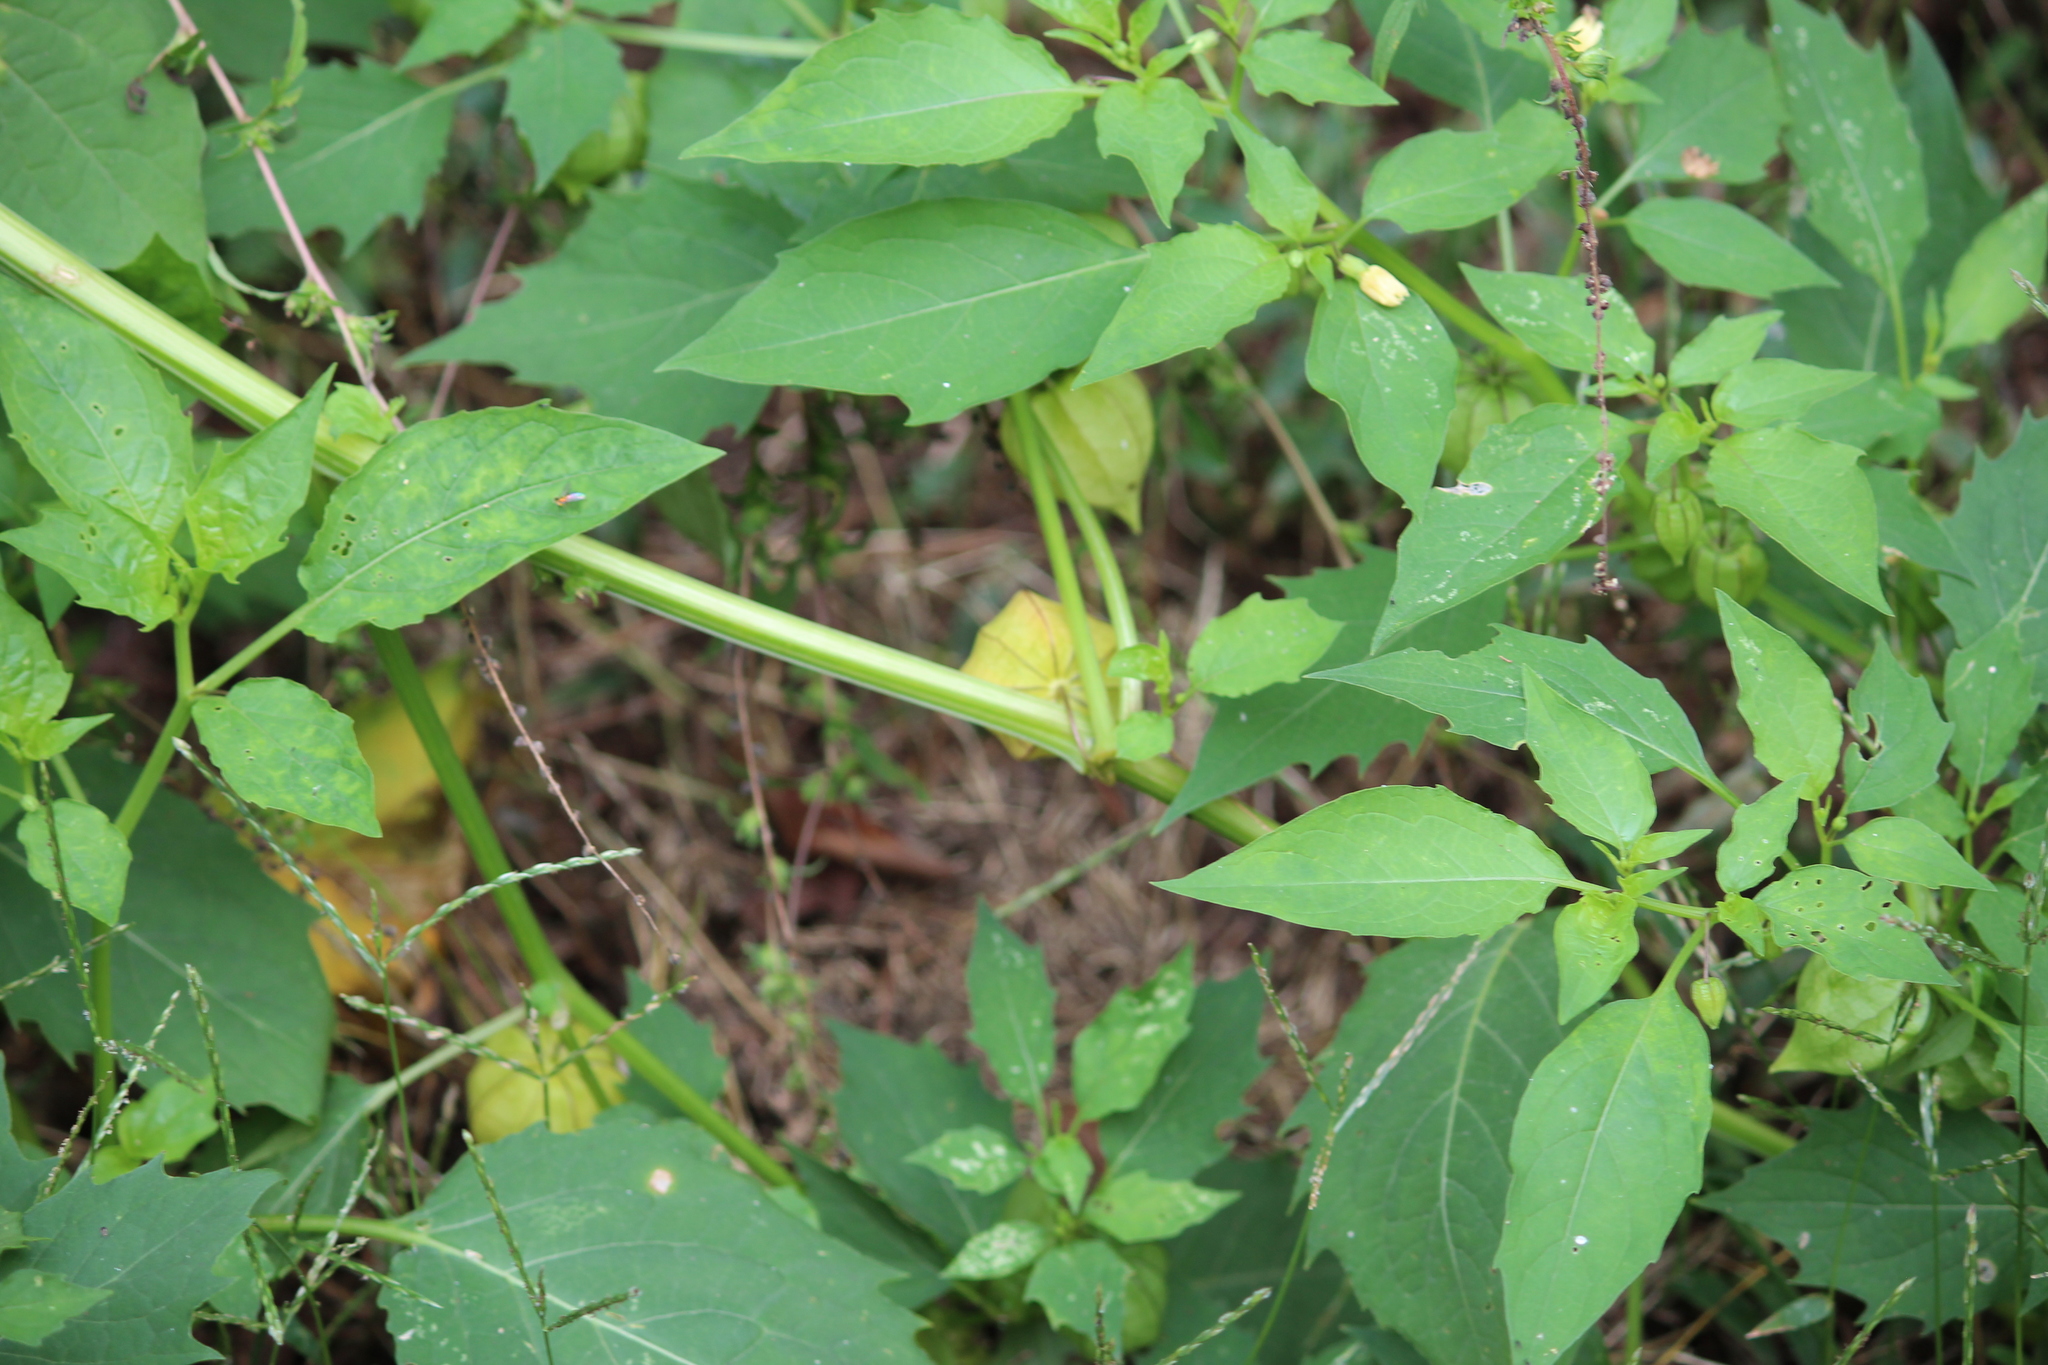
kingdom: Plantae
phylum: Tracheophyta
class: Magnoliopsida
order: Solanales
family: Solanaceae
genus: Physalis
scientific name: Physalis angulata
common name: Angular winter-cherry
